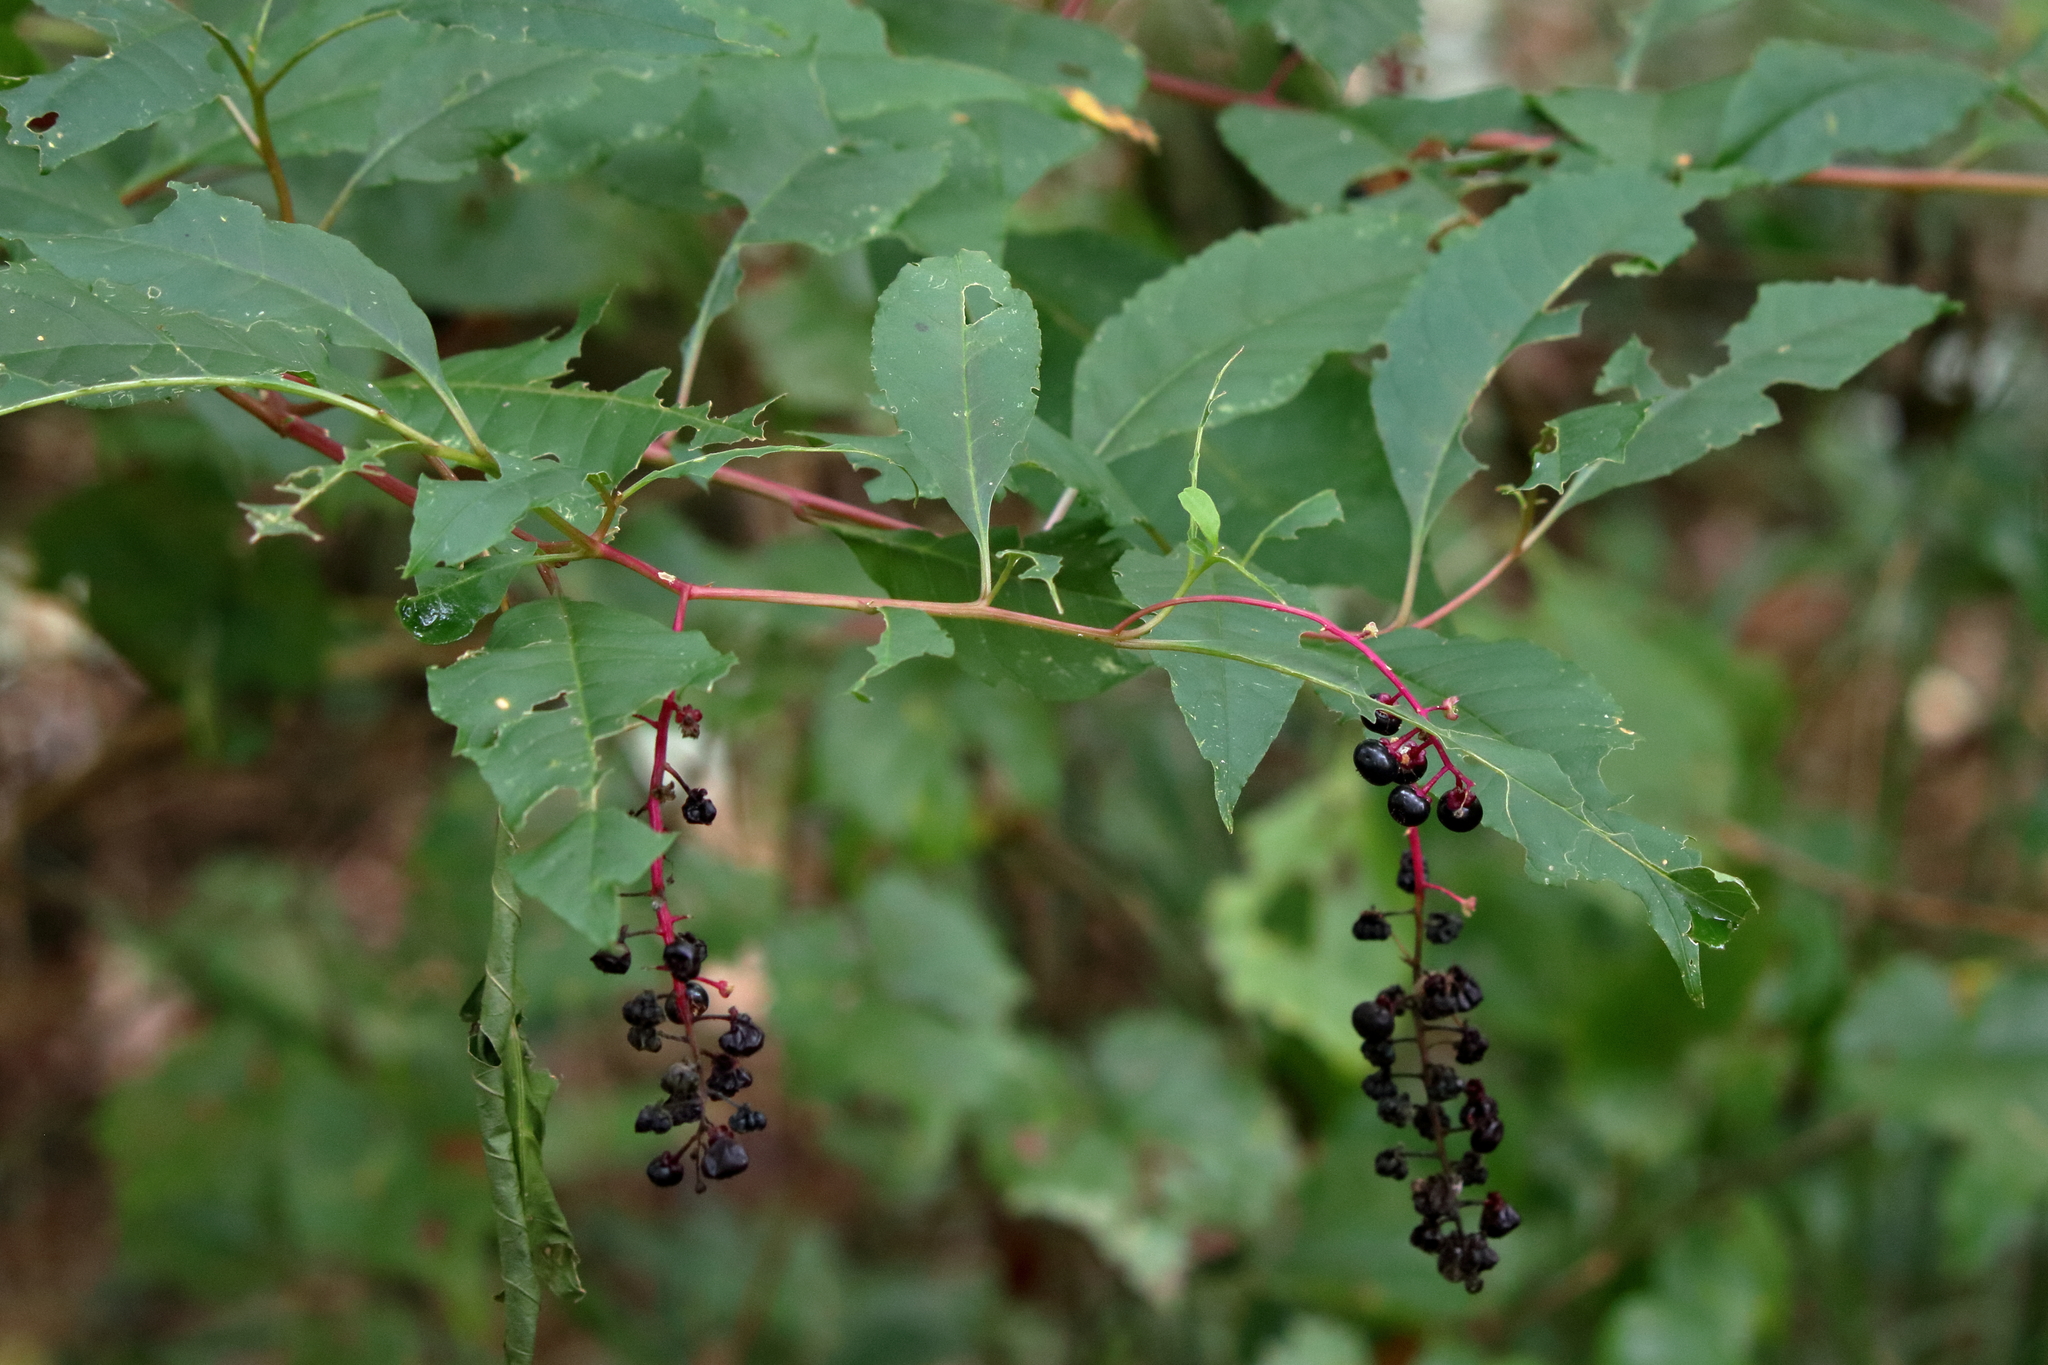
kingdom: Plantae
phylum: Tracheophyta
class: Magnoliopsida
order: Caryophyllales
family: Phytolaccaceae
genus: Phytolacca
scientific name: Phytolacca americana
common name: American pokeweed
